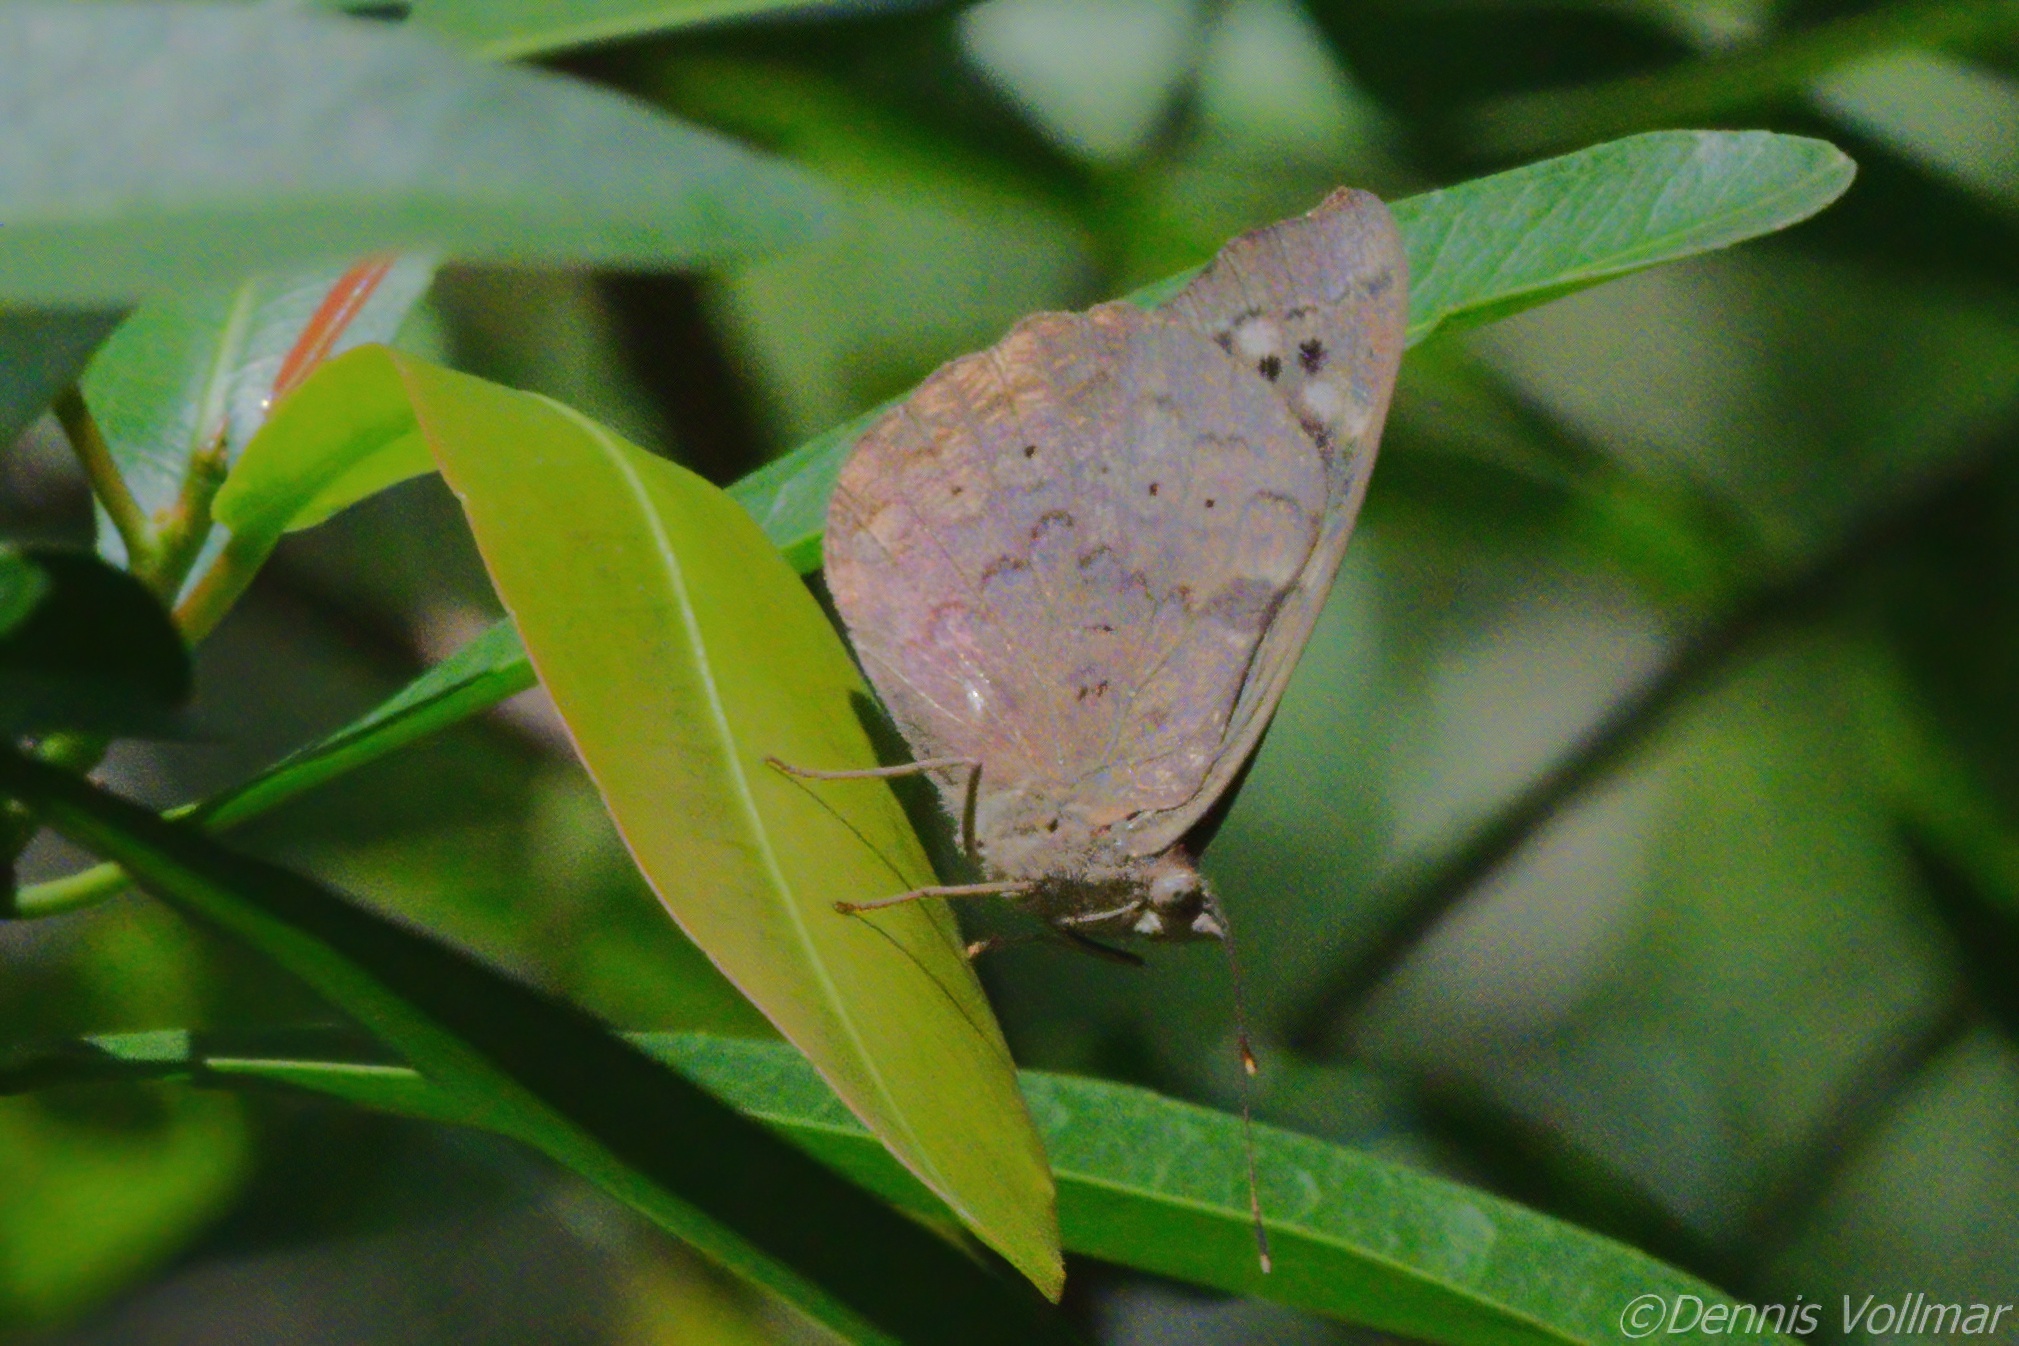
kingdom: Animalia
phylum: Arthropoda
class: Insecta
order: Lepidoptera
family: Nymphalidae
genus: Eunica
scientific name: Eunica tatila
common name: Florida purplewing
